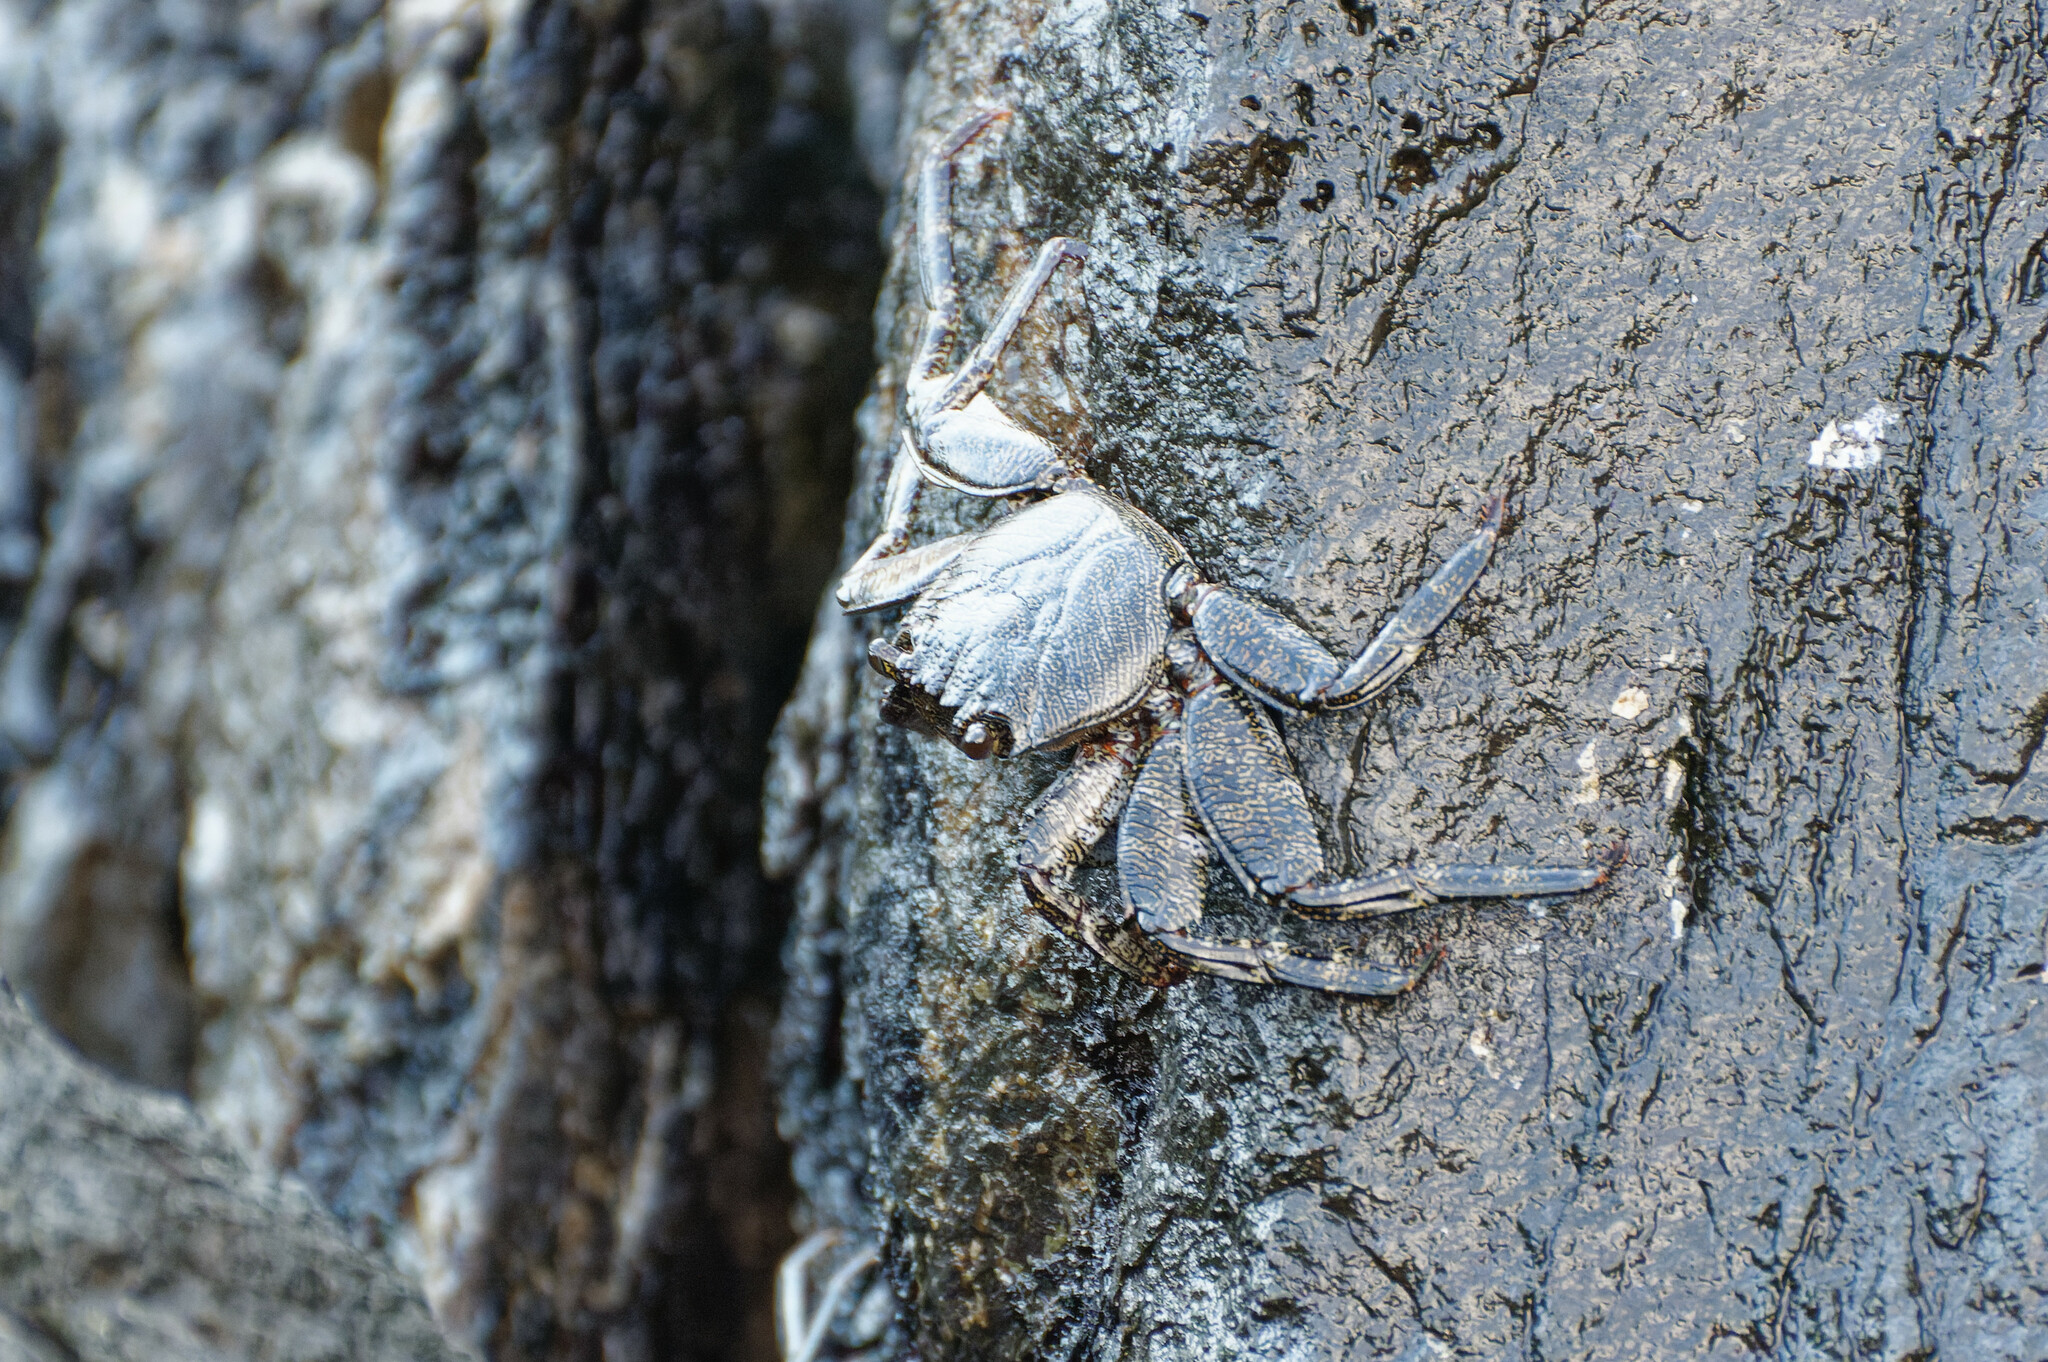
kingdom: Animalia
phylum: Arthropoda
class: Malacostraca
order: Decapoda
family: Grapsidae
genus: Grapsus
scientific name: Grapsus adscensionis
